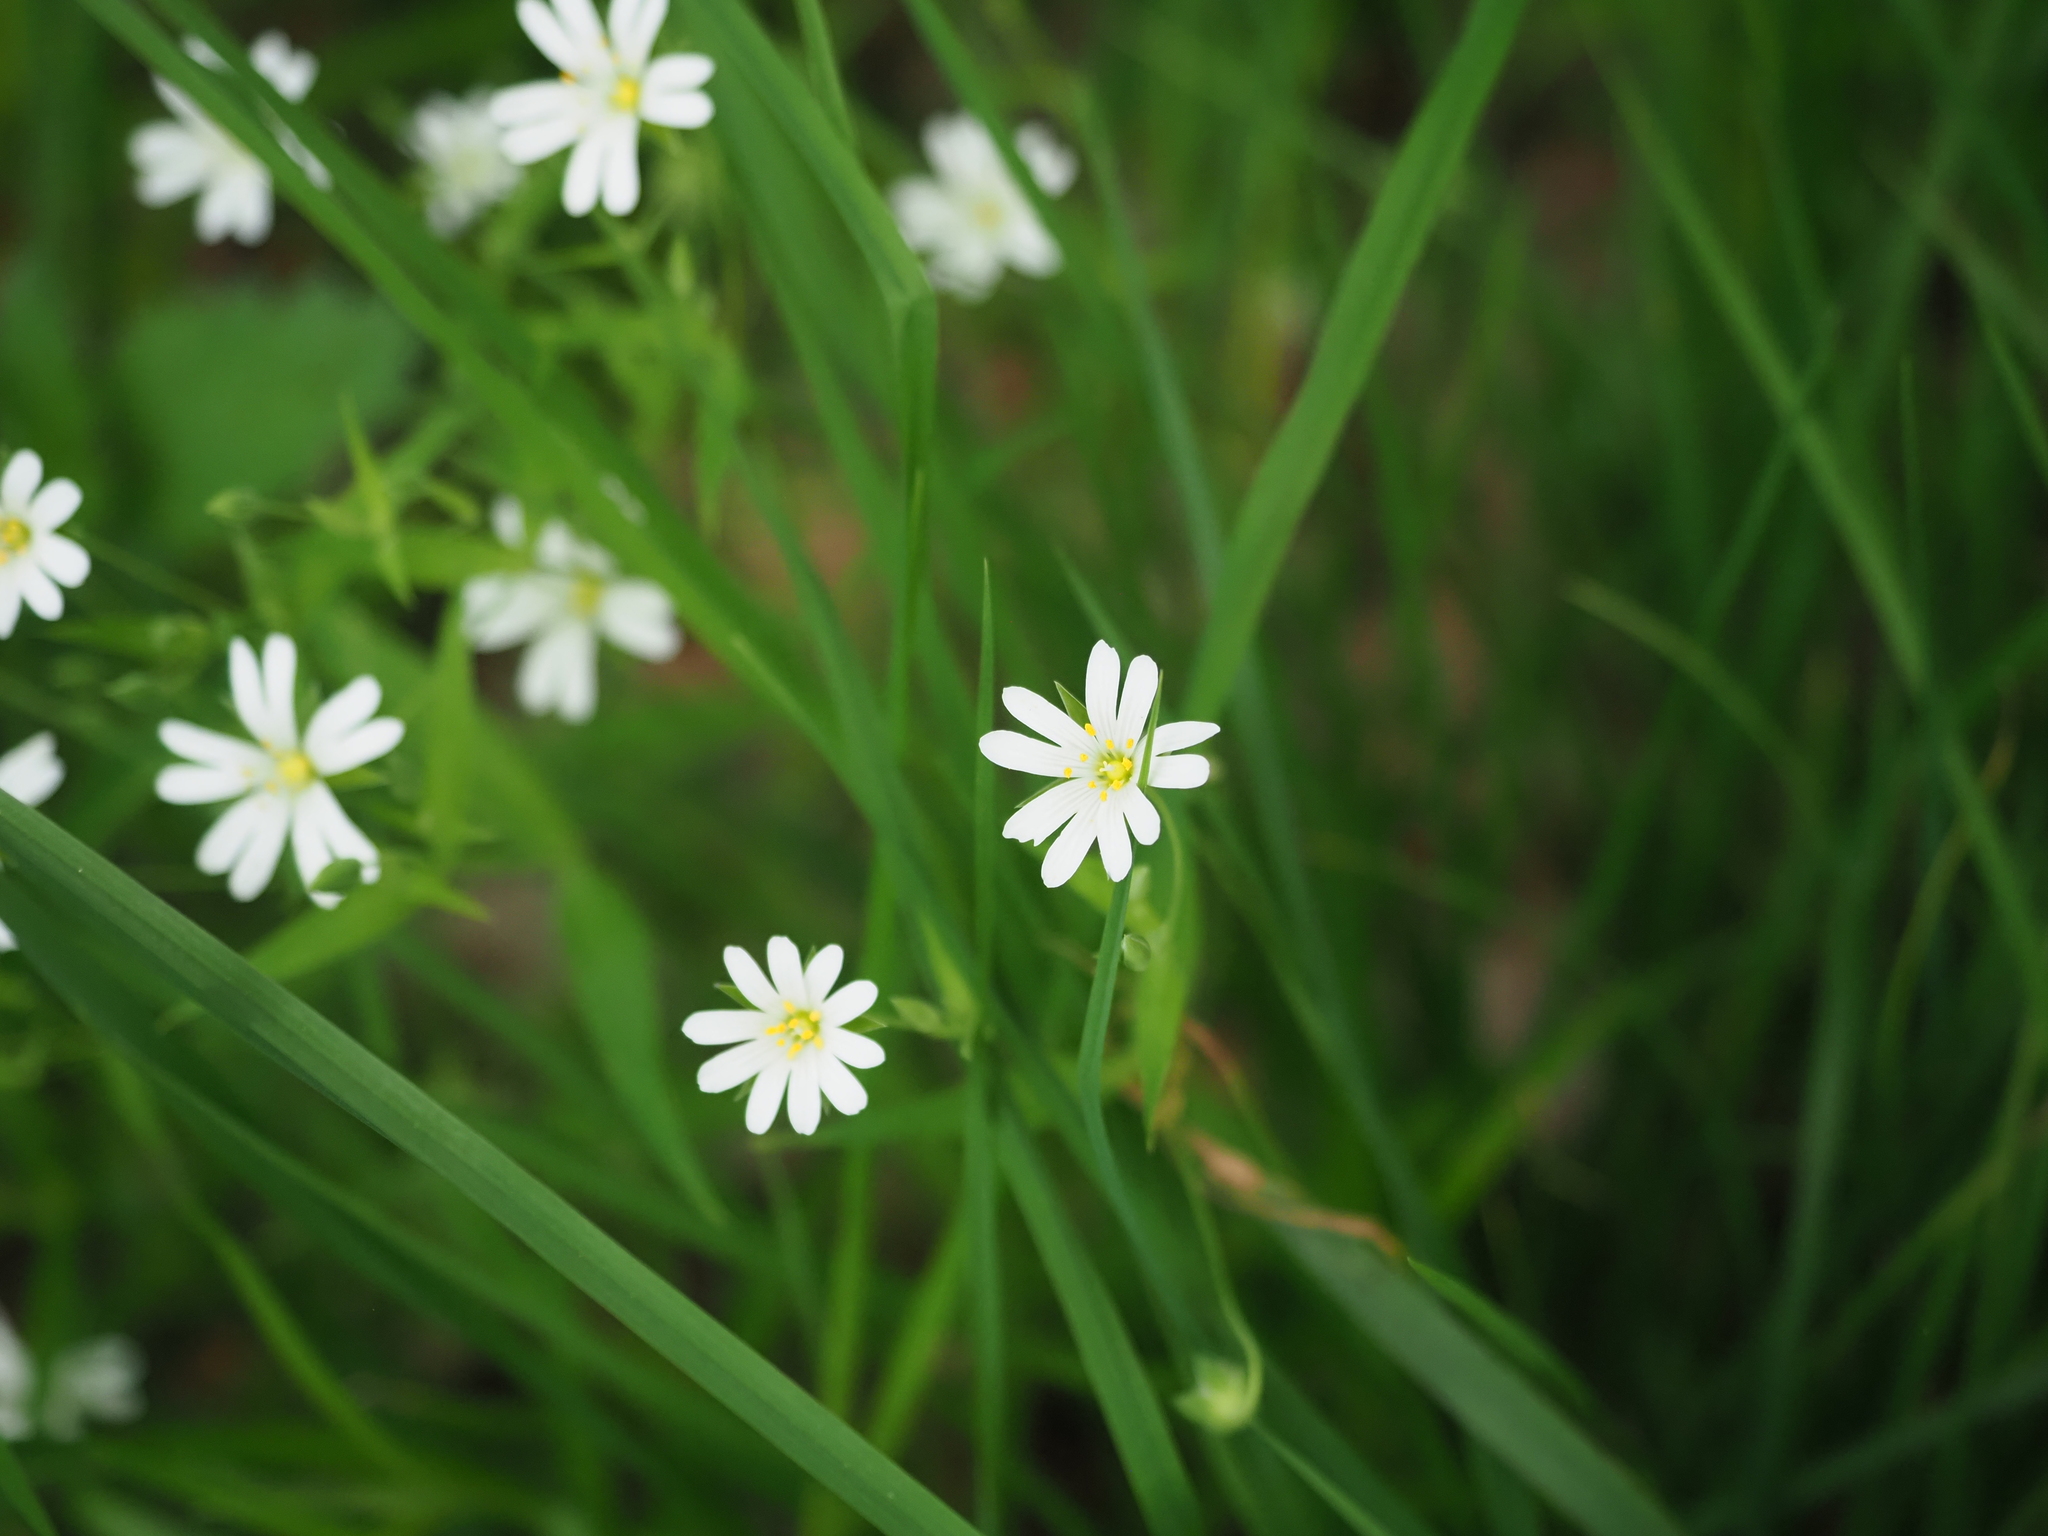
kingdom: Plantae
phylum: Tracheophyta
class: Magnoliopsida
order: Caryophyllales
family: Caryophyllaceae
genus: Rabelera
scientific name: Rabelera holostea
